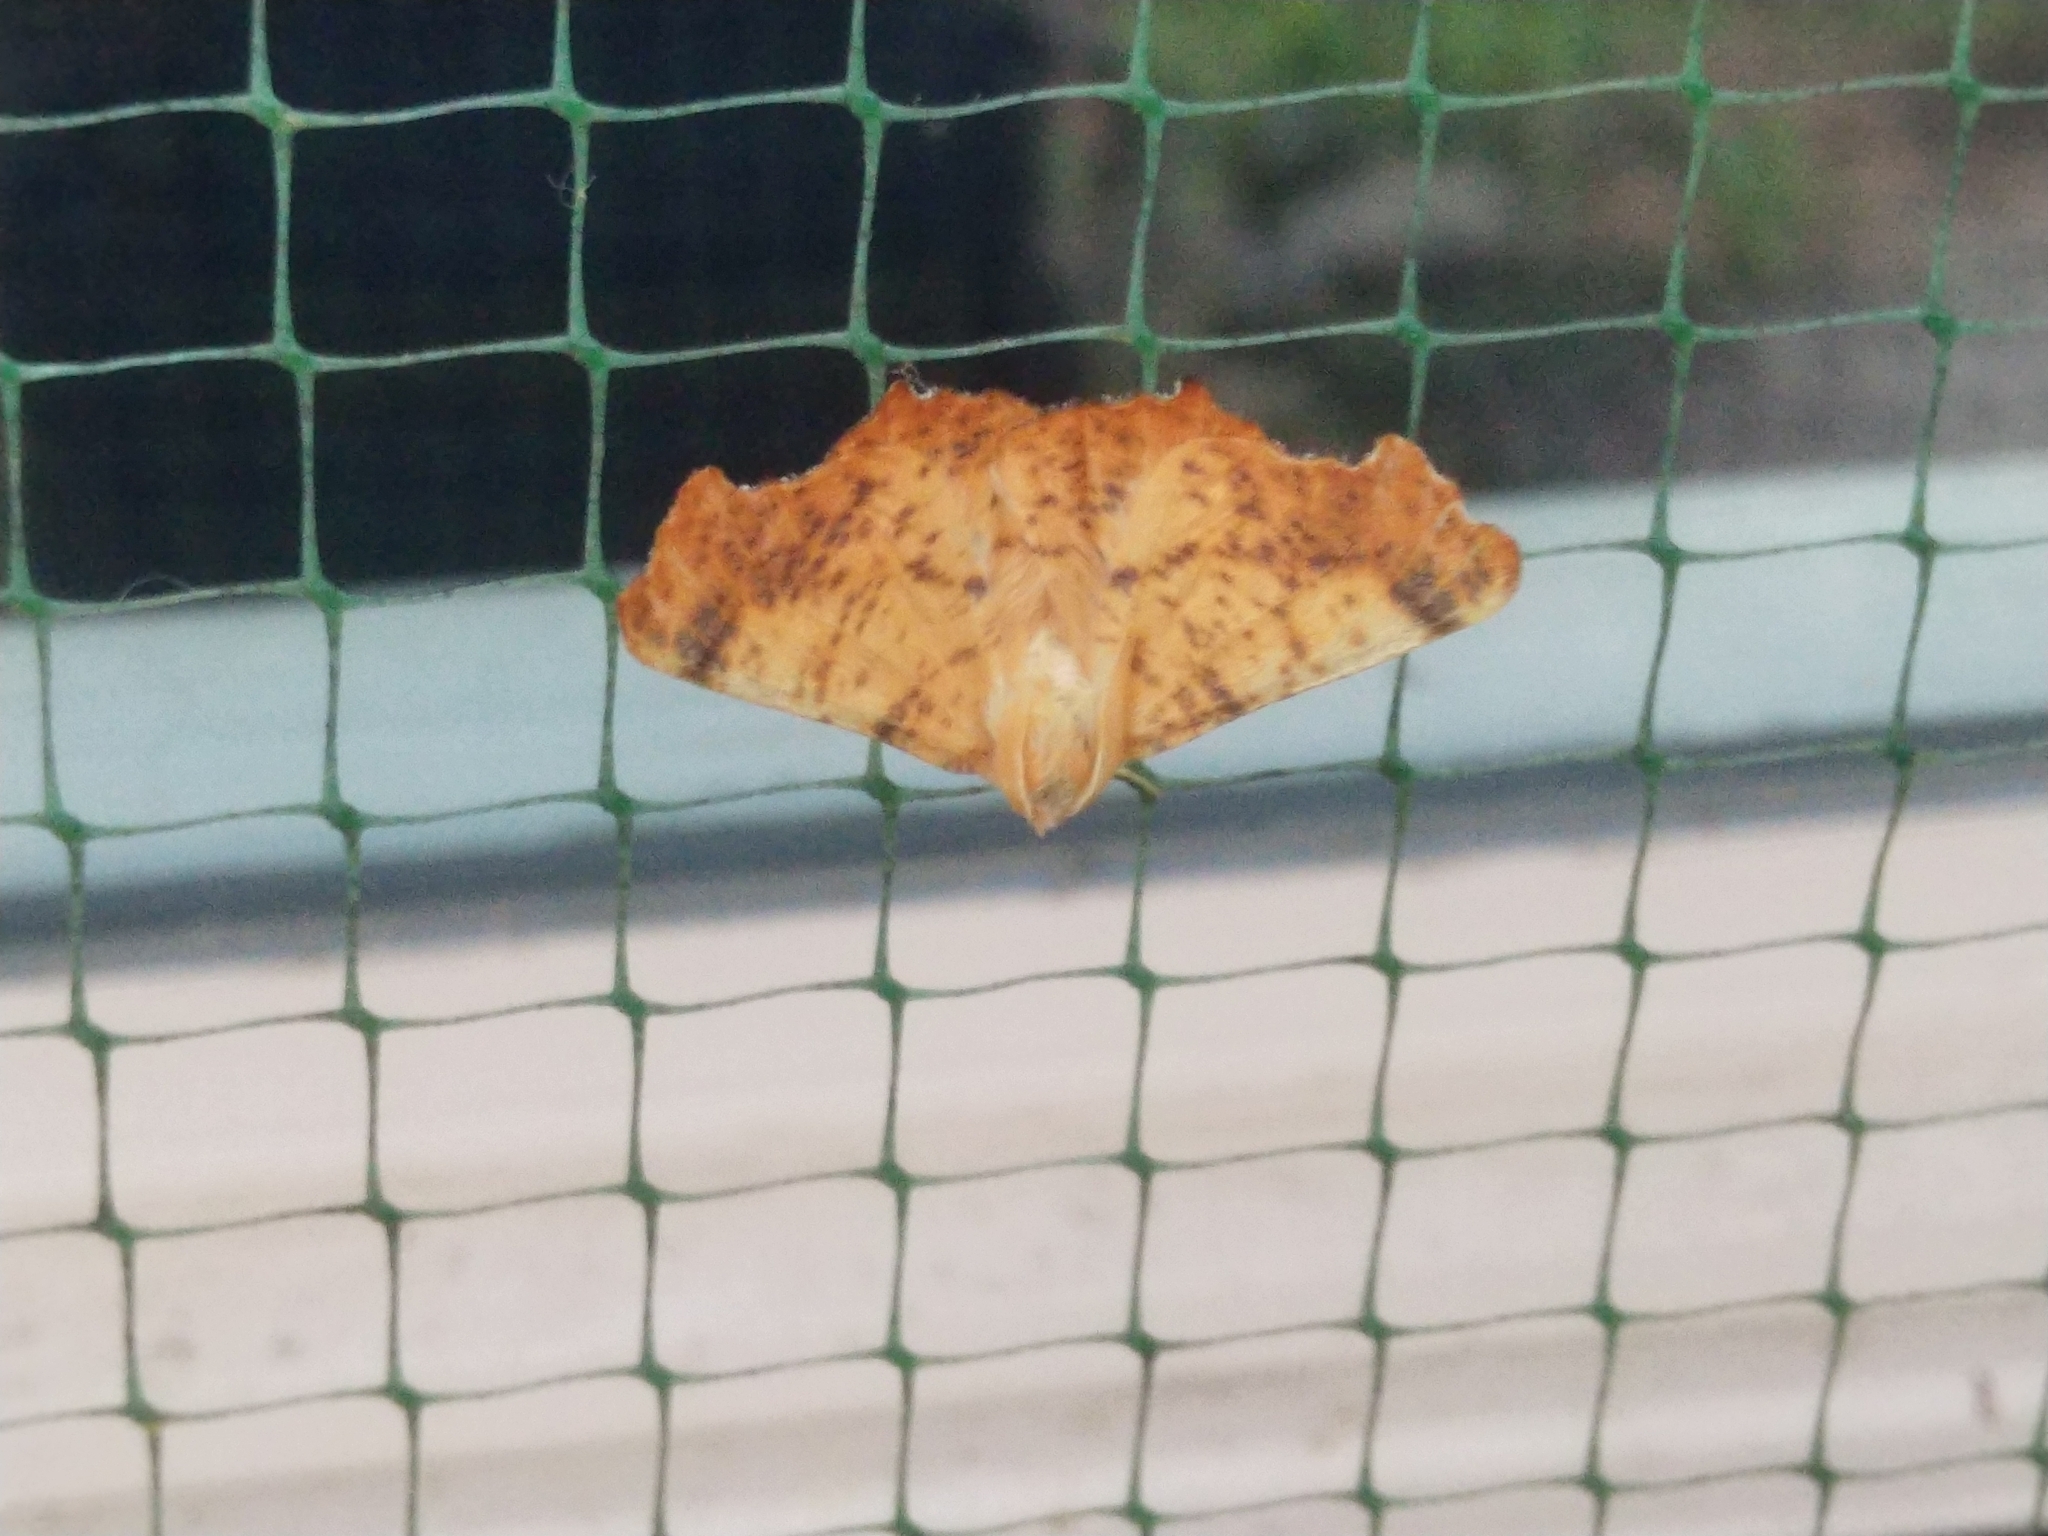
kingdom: Animalia
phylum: Arthropoda
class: Insecta
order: Lepidoptera
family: Geometridae
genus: Ennomos
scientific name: Ennomos magnaria
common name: Maple spanworm
